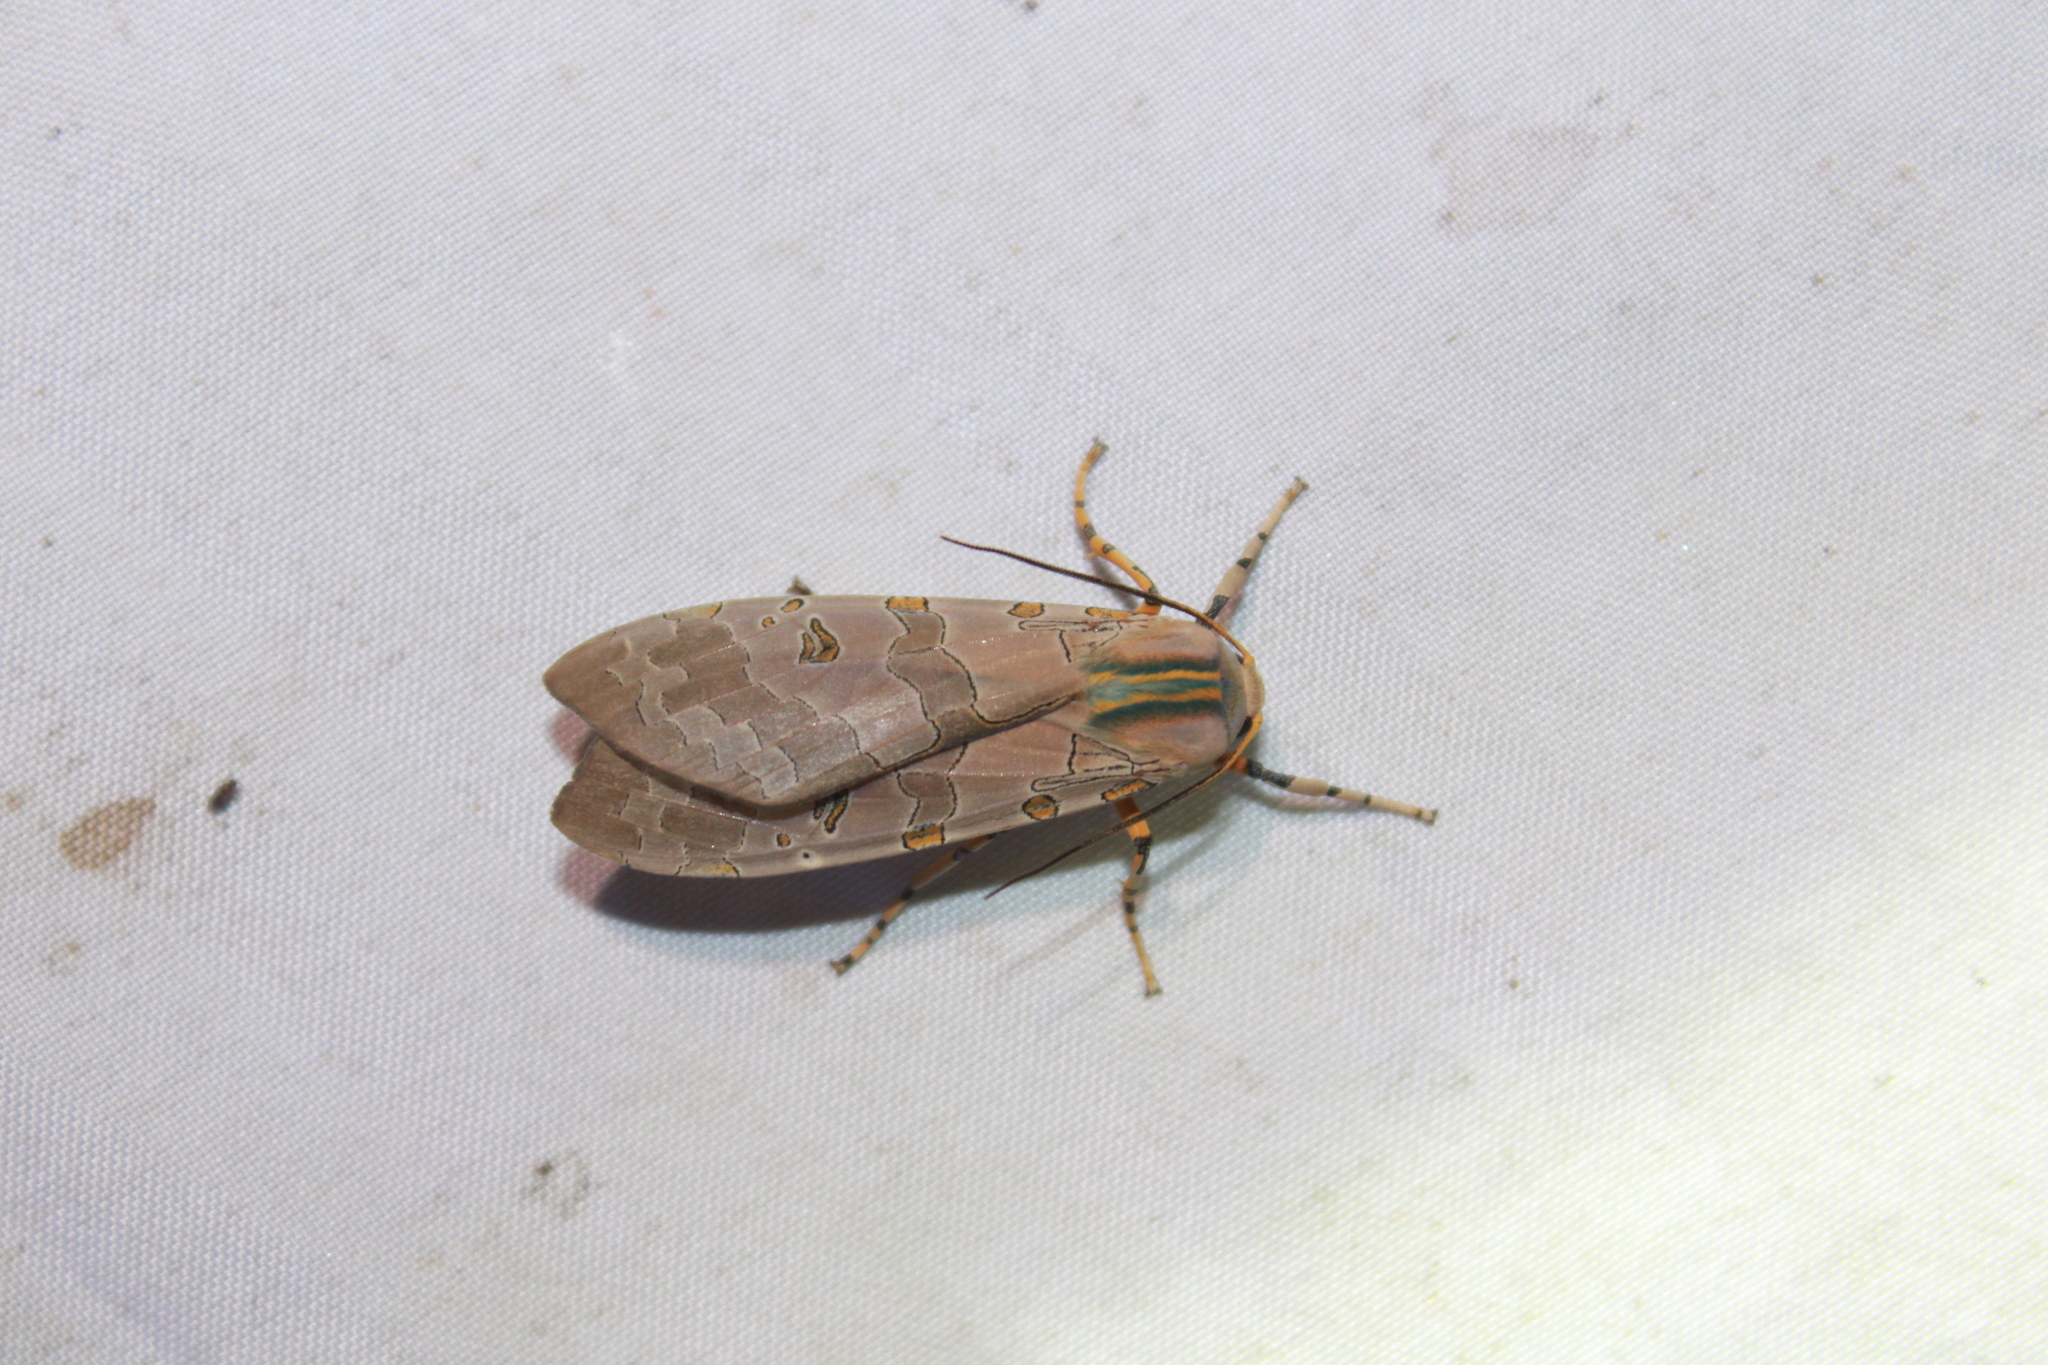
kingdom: Animalia
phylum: Arthropoda
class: Insecta
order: Lepidoptera
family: Erebidae
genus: Halysidota
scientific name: Halysidota cinctipes
